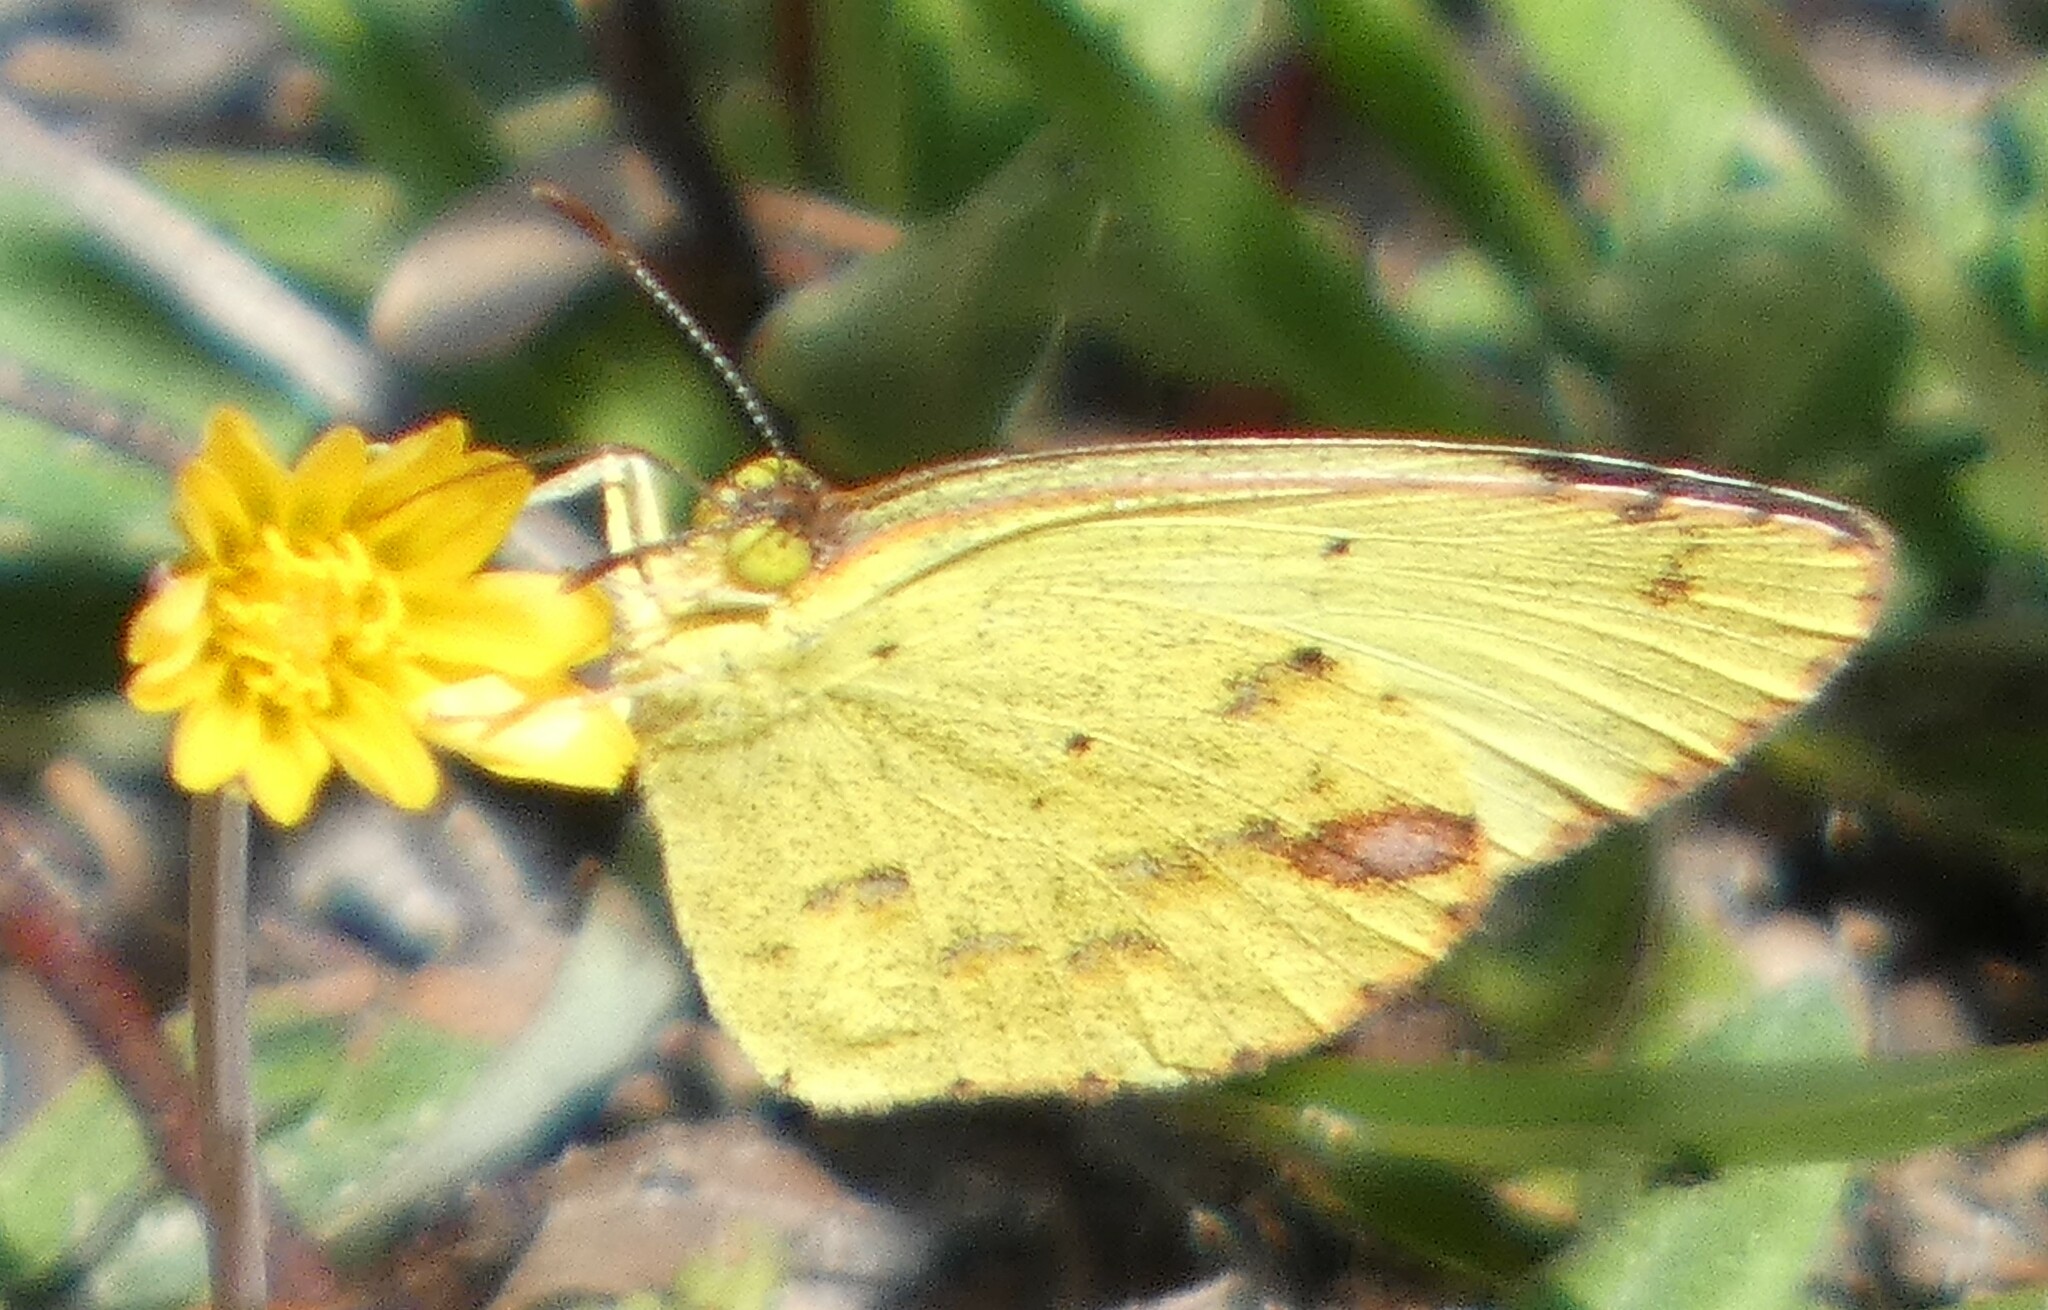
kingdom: Animalia
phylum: Arthropoda
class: Insecta
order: Lepidoptera
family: Pieridae
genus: Pyrisitia
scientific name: Pyrisitia lisa
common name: Little yellow
